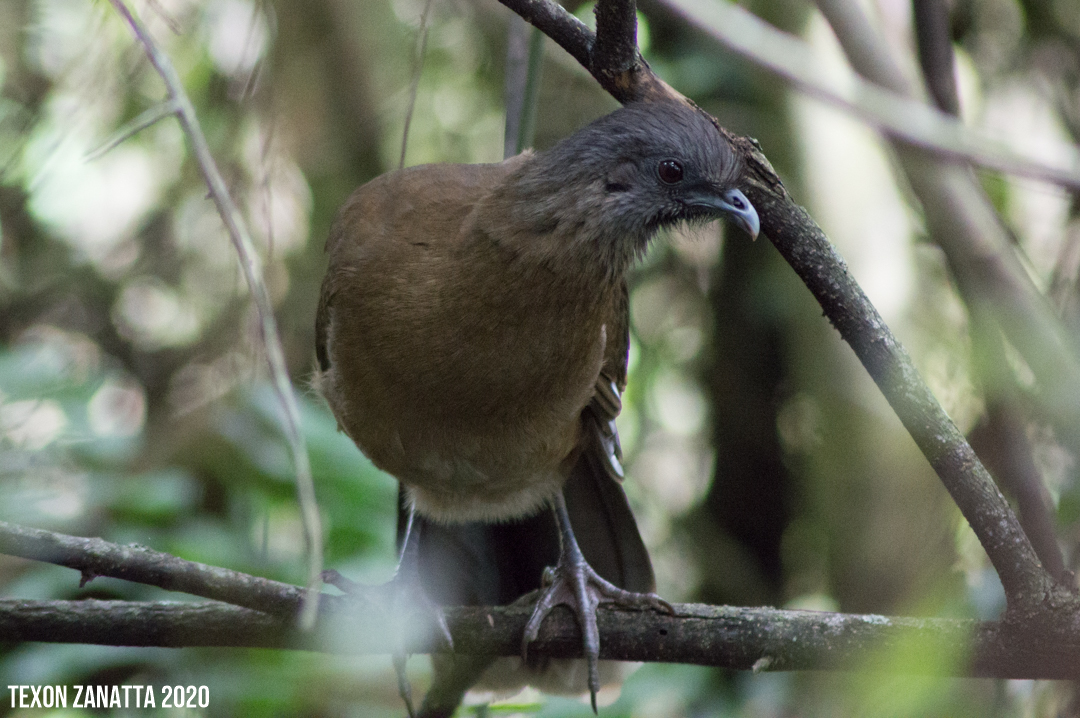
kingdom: Animalia
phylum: Chordata
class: Aves
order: Galliformes
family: Cracidae
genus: Ortalis
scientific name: Ortalis vetula
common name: Plain chachalaca
